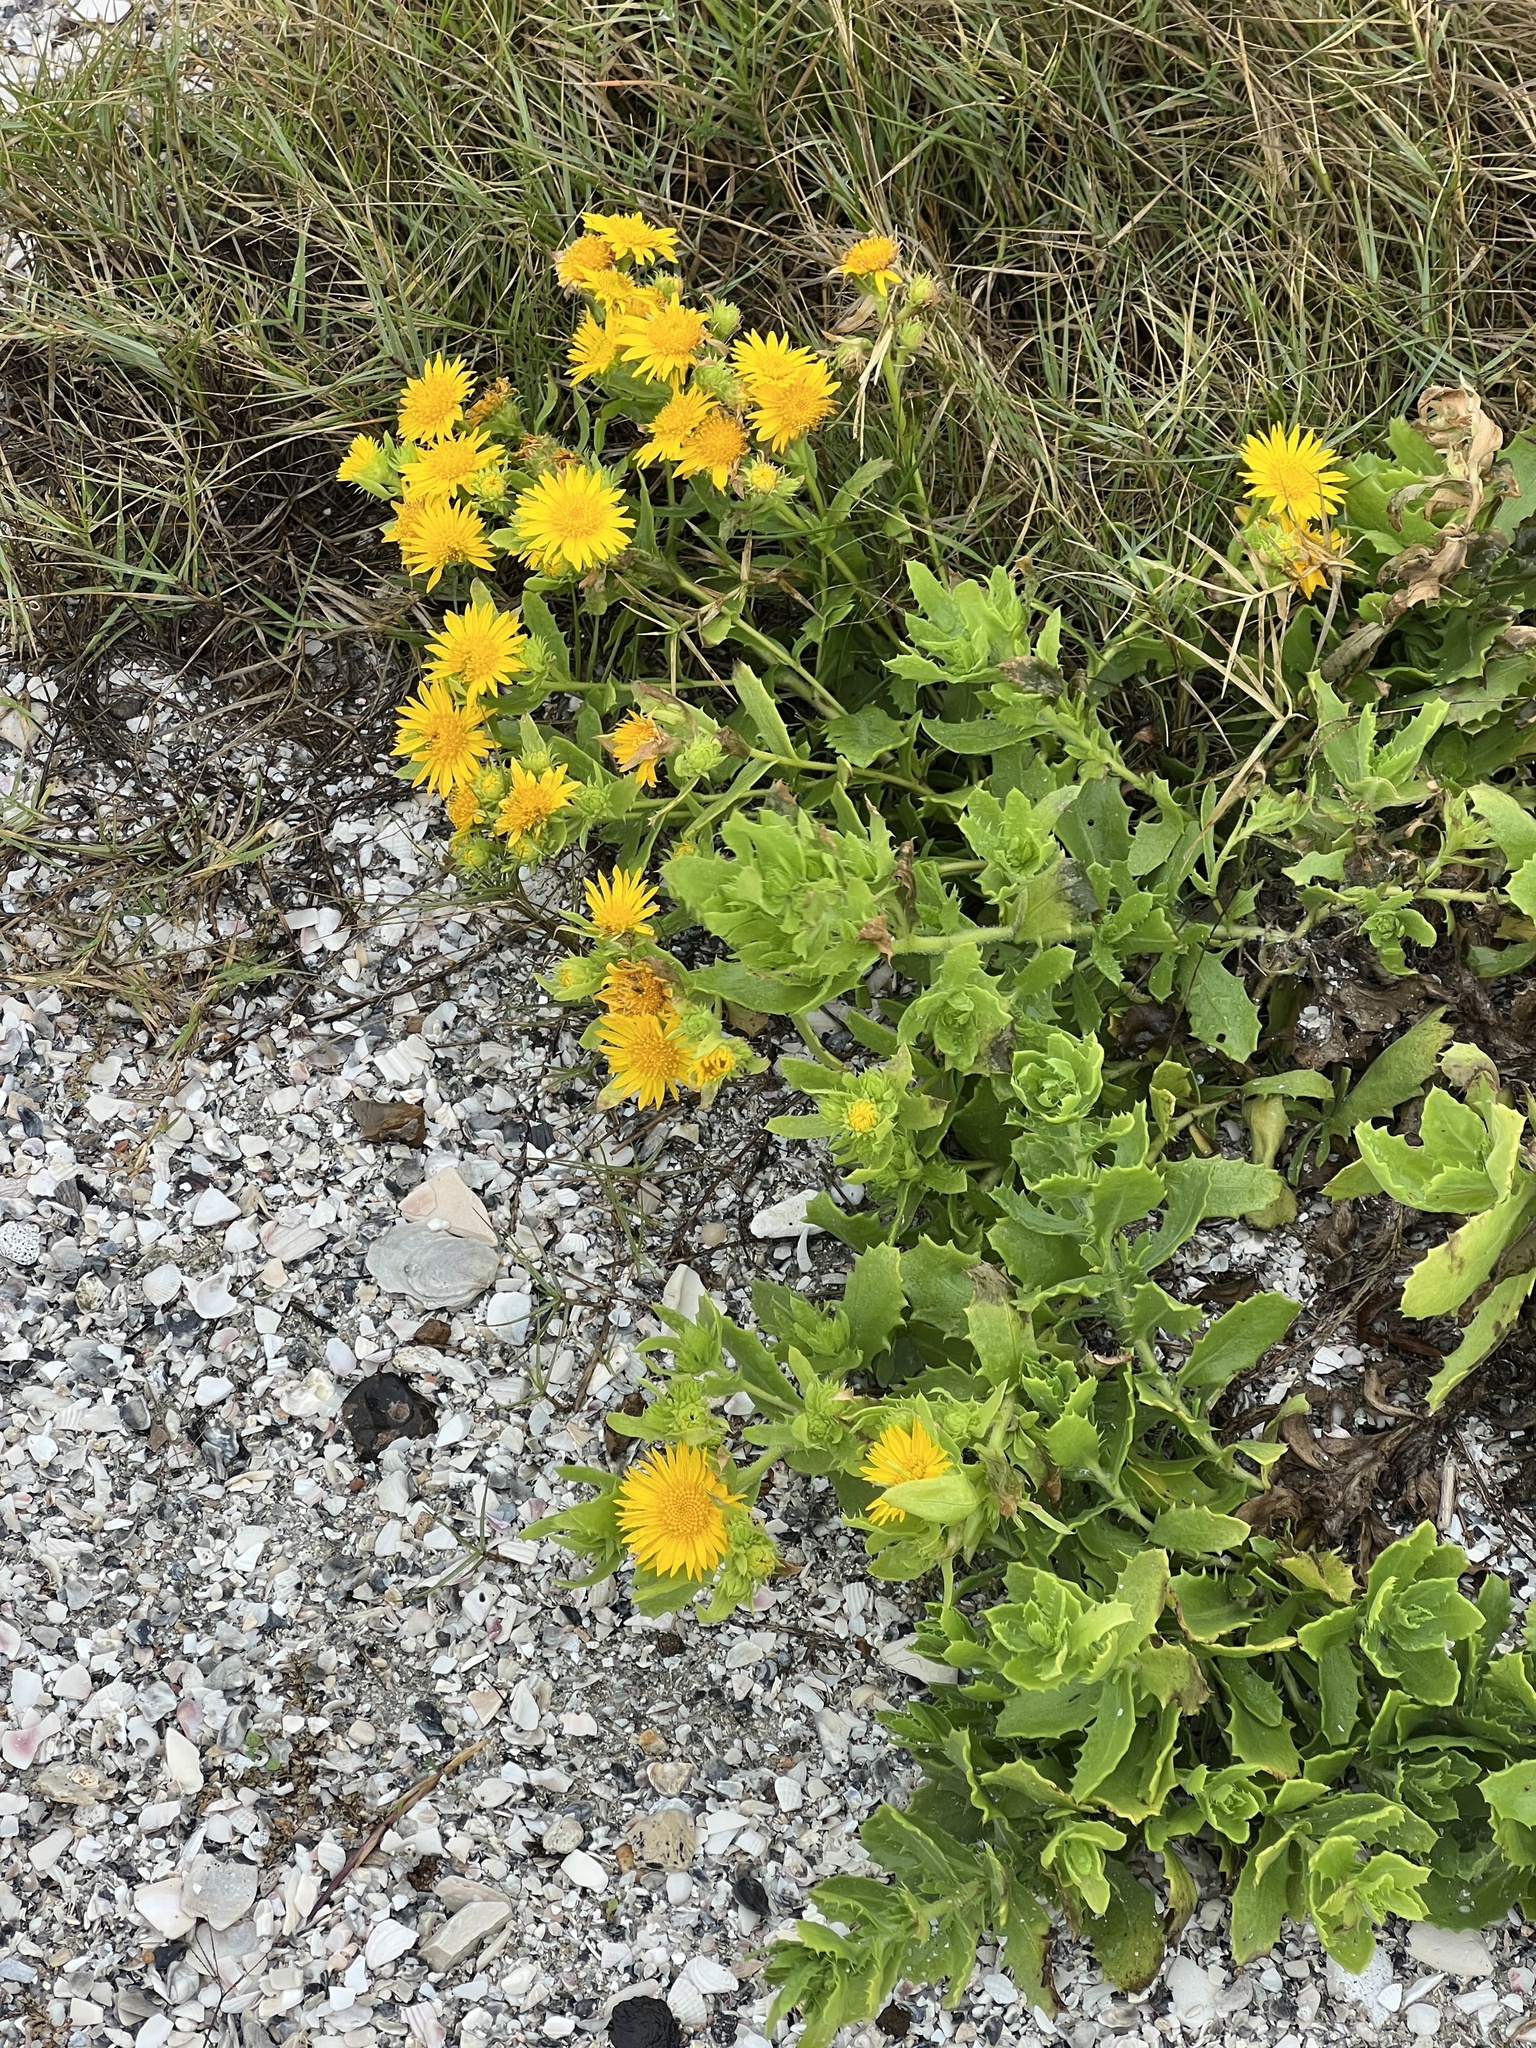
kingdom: Plantae
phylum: Tracheophyta
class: Magnoliopsida
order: Asterales
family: Asteraceae
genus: Rayjacksonia
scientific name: Rayjacksonia phyllocephala
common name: Gulf coast camphor daisy
